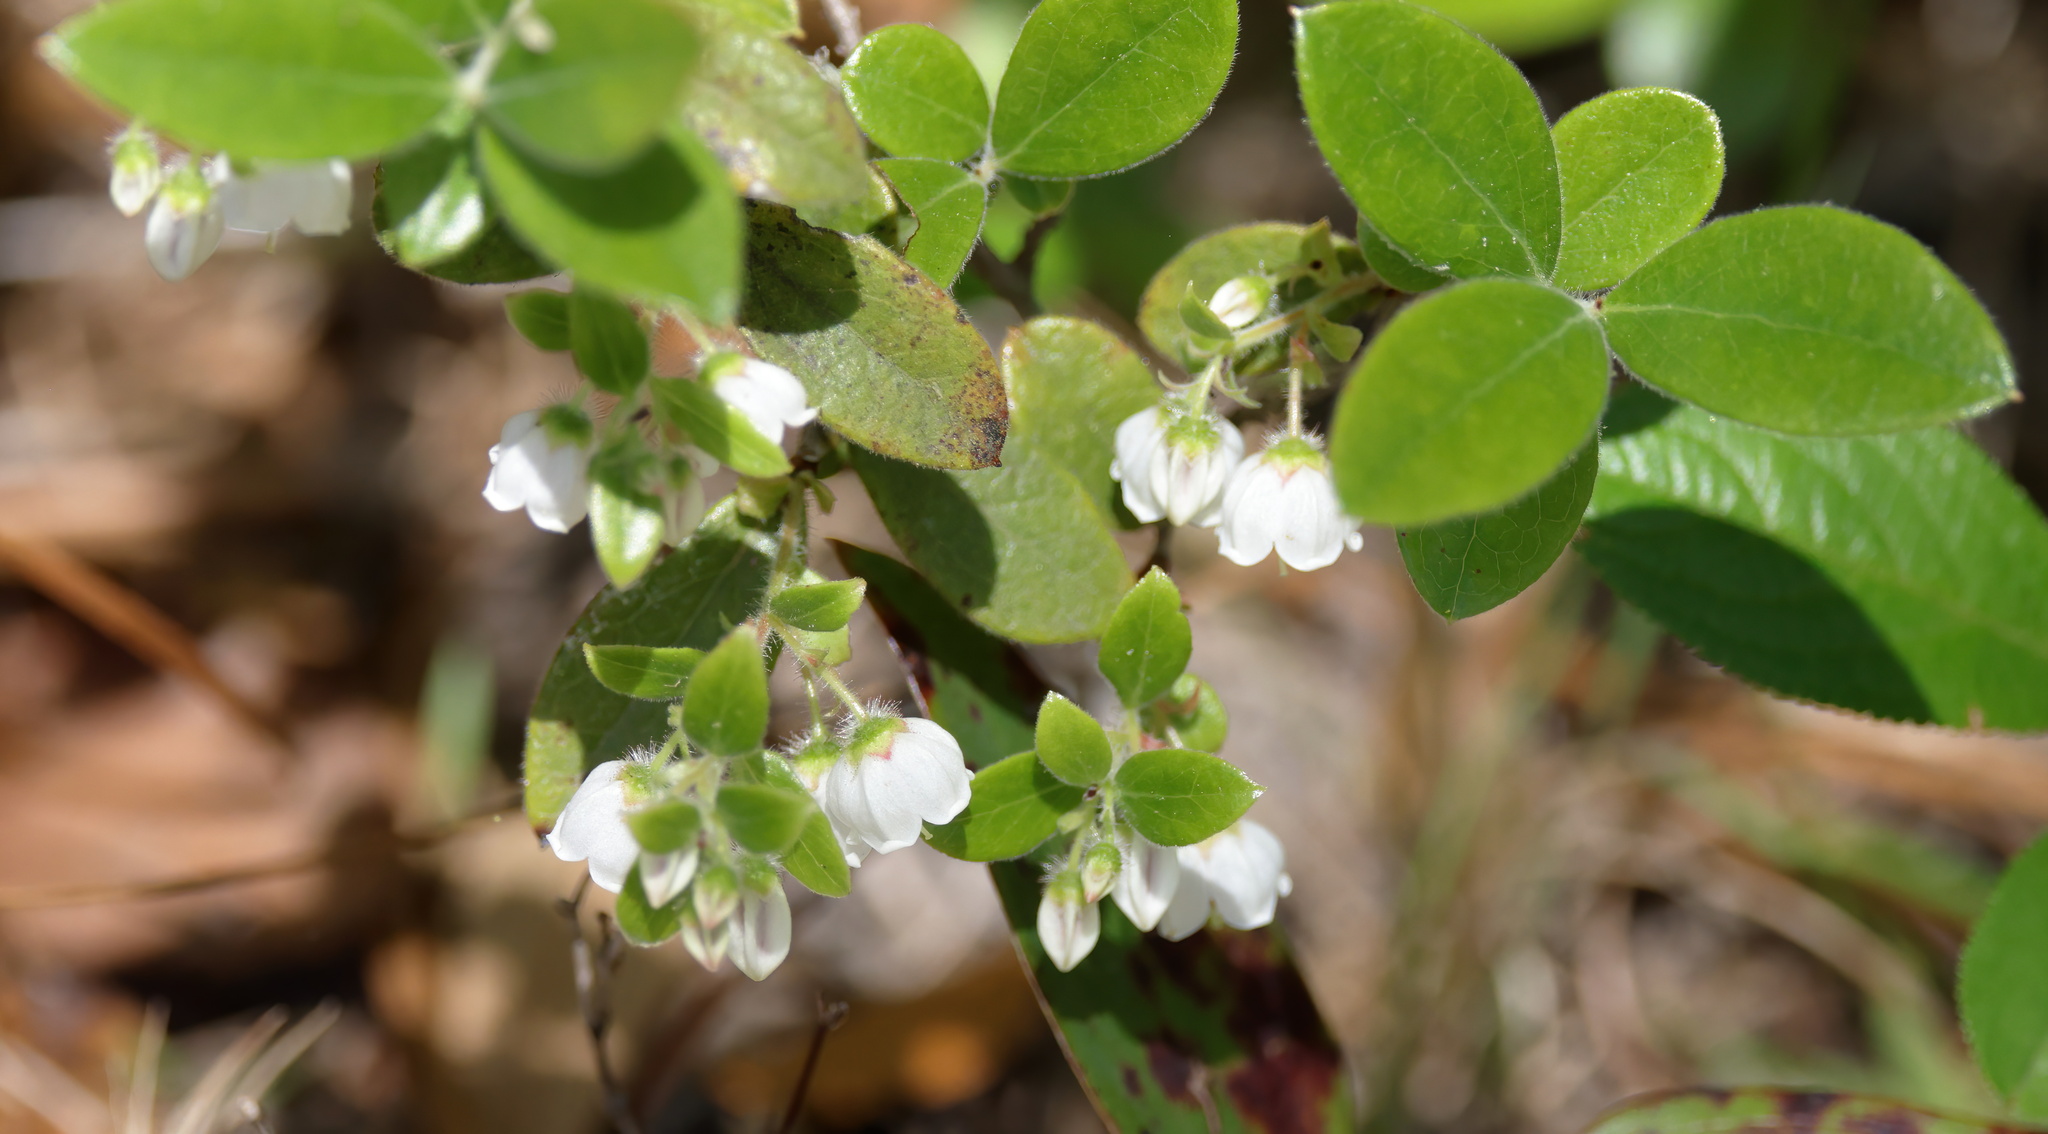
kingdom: Plantae
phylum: Tracheophyta
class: Magnoliopsida
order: Ericales
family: Ericaceae
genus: Gaylussacia
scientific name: Gaylussacia mosieri
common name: Hirsute huckleberry
